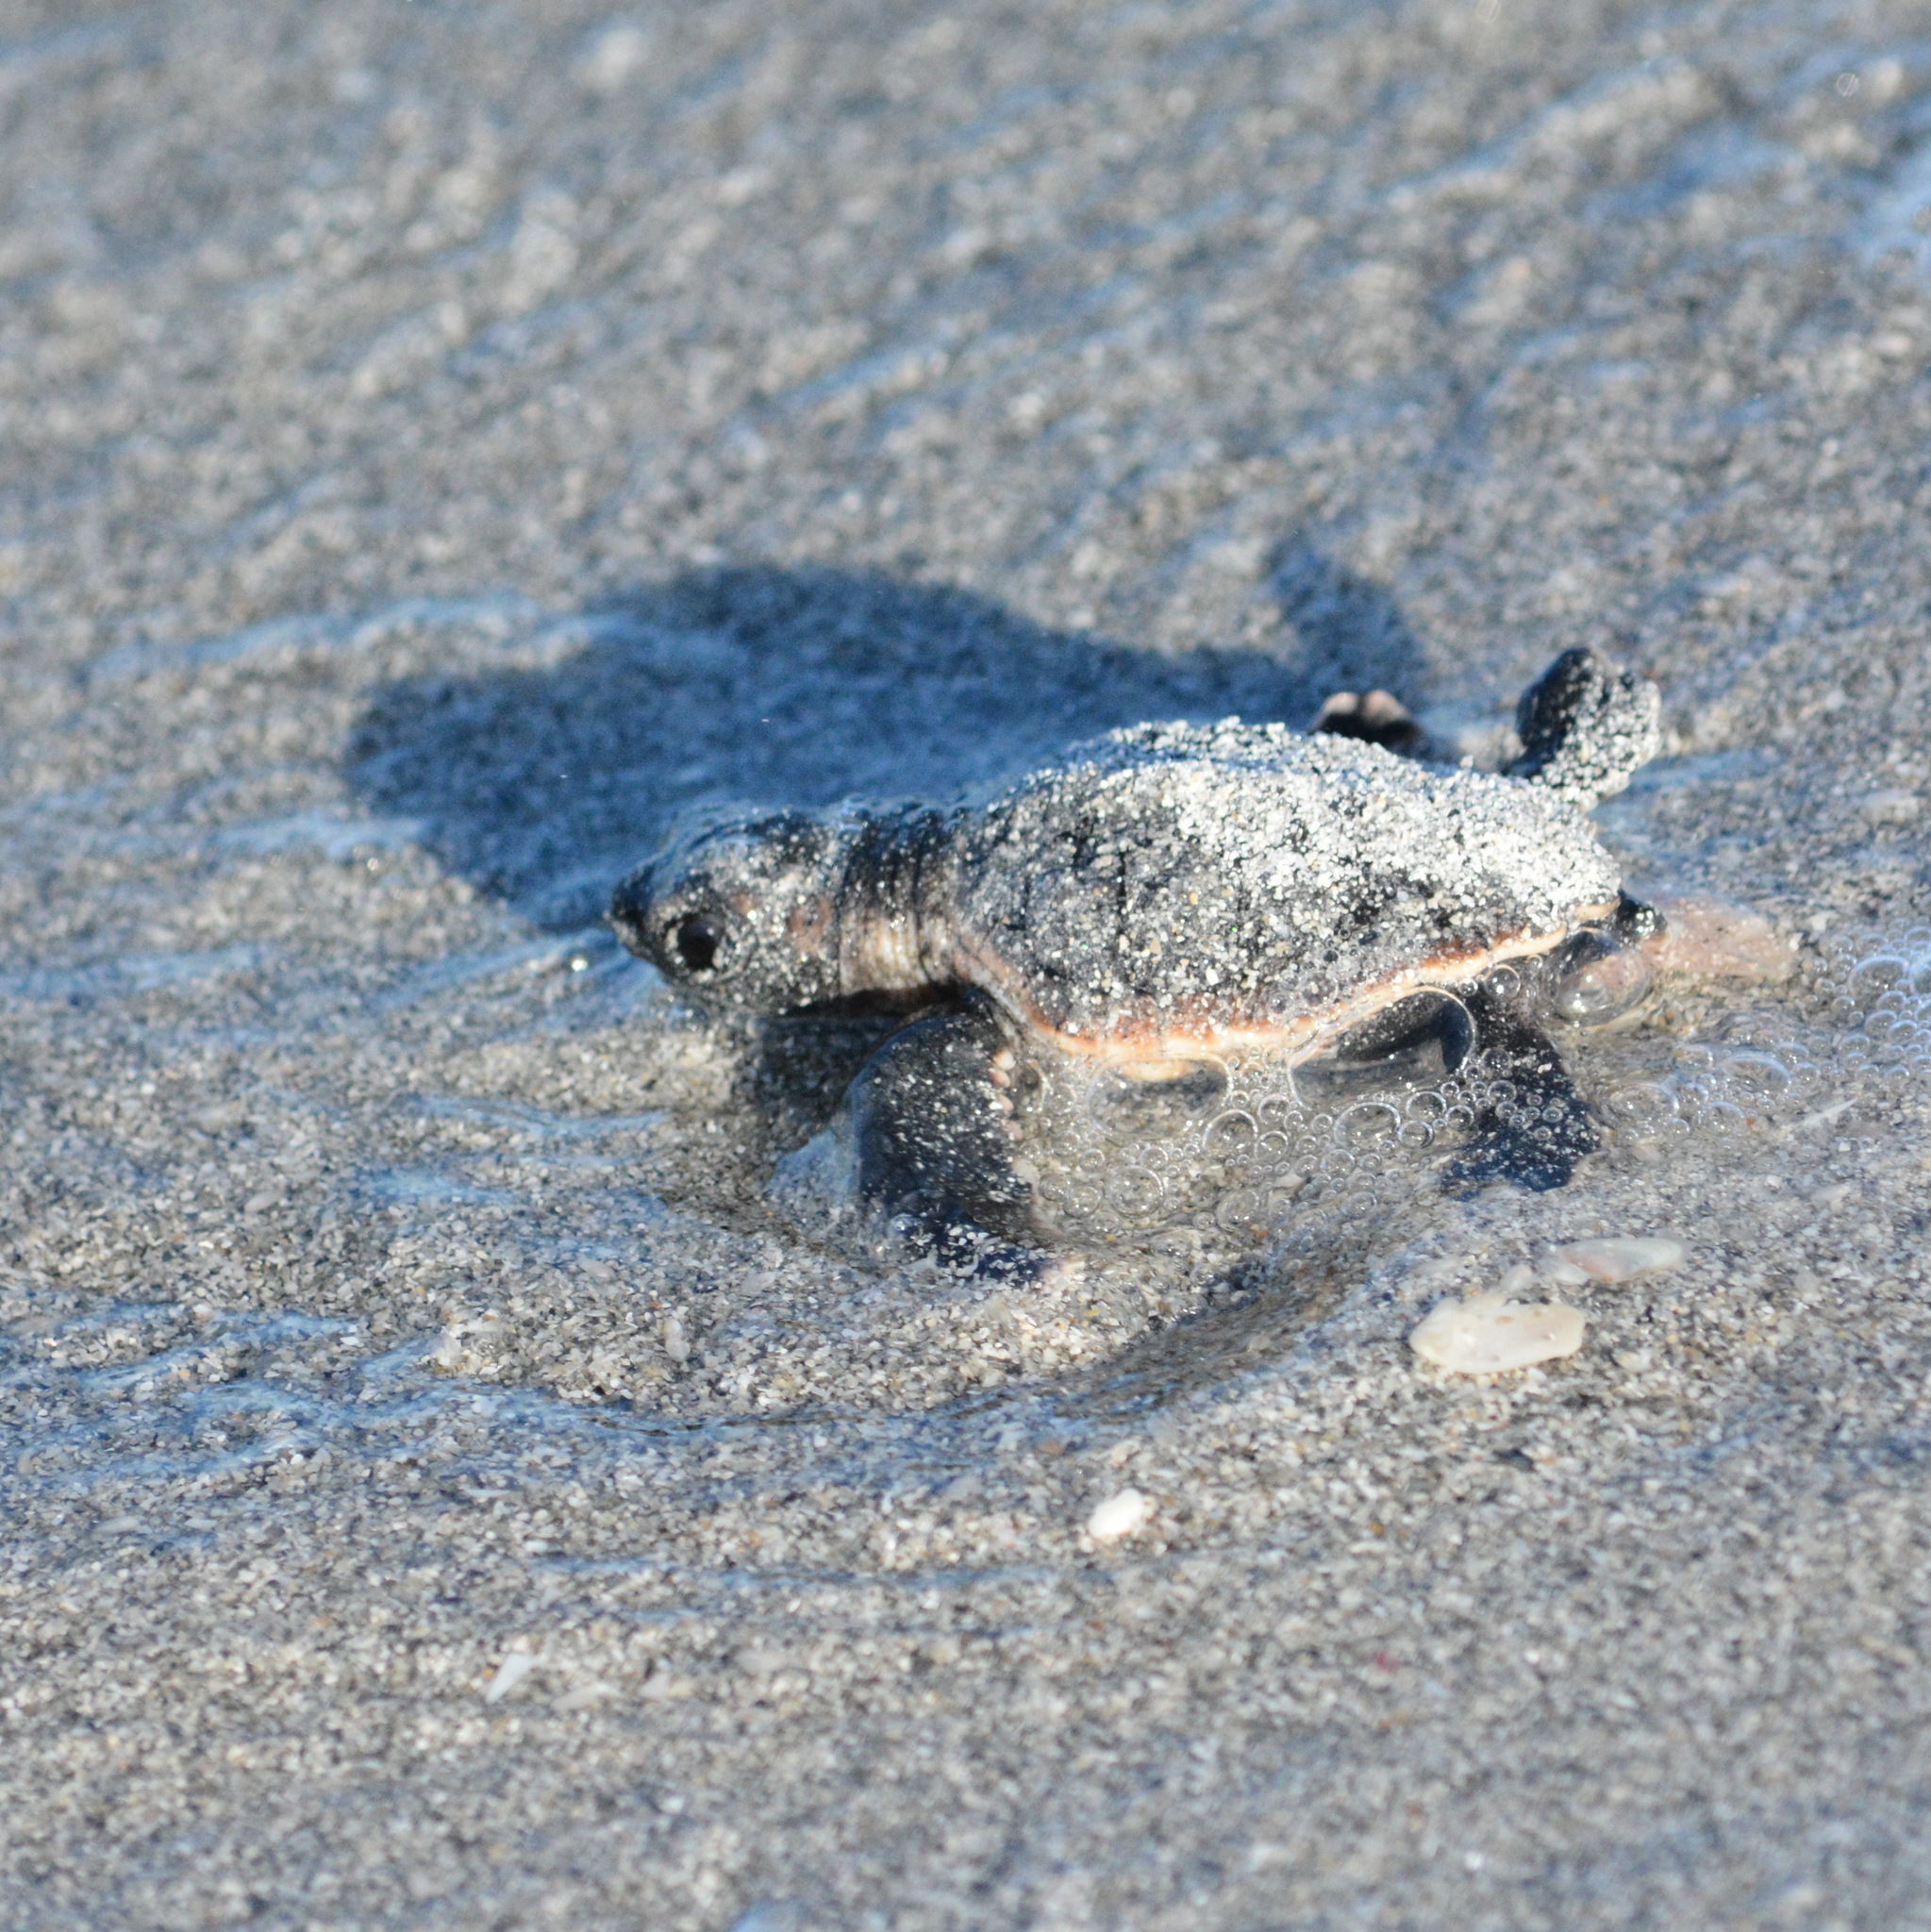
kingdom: Animalia
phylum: Chordata
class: Testudines
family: Cheloniidae
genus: Caretta
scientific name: Caretta caretta
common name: Loggerhead sea turtle
